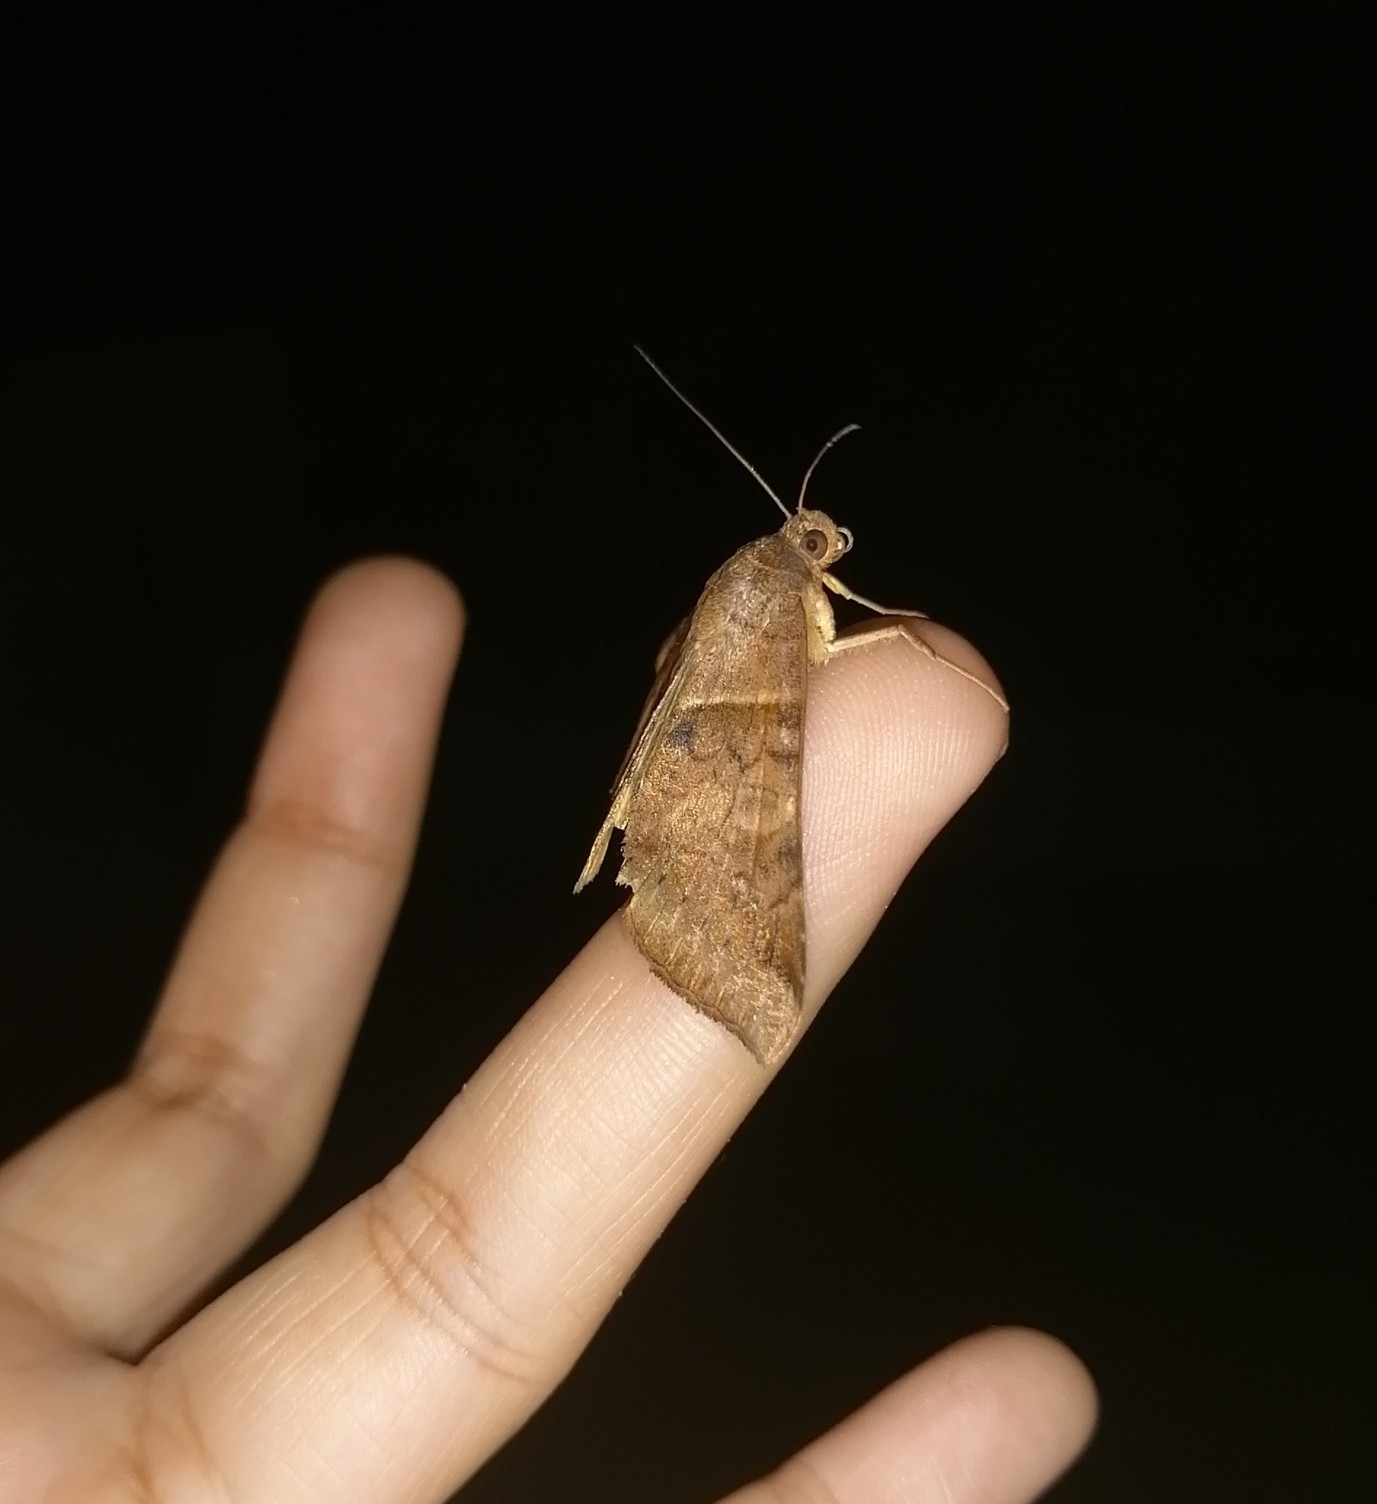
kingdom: Animalia
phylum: Arthropoda
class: Insecta
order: Lepidoptera
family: Erebidae
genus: Mocis
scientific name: Mocis undata
